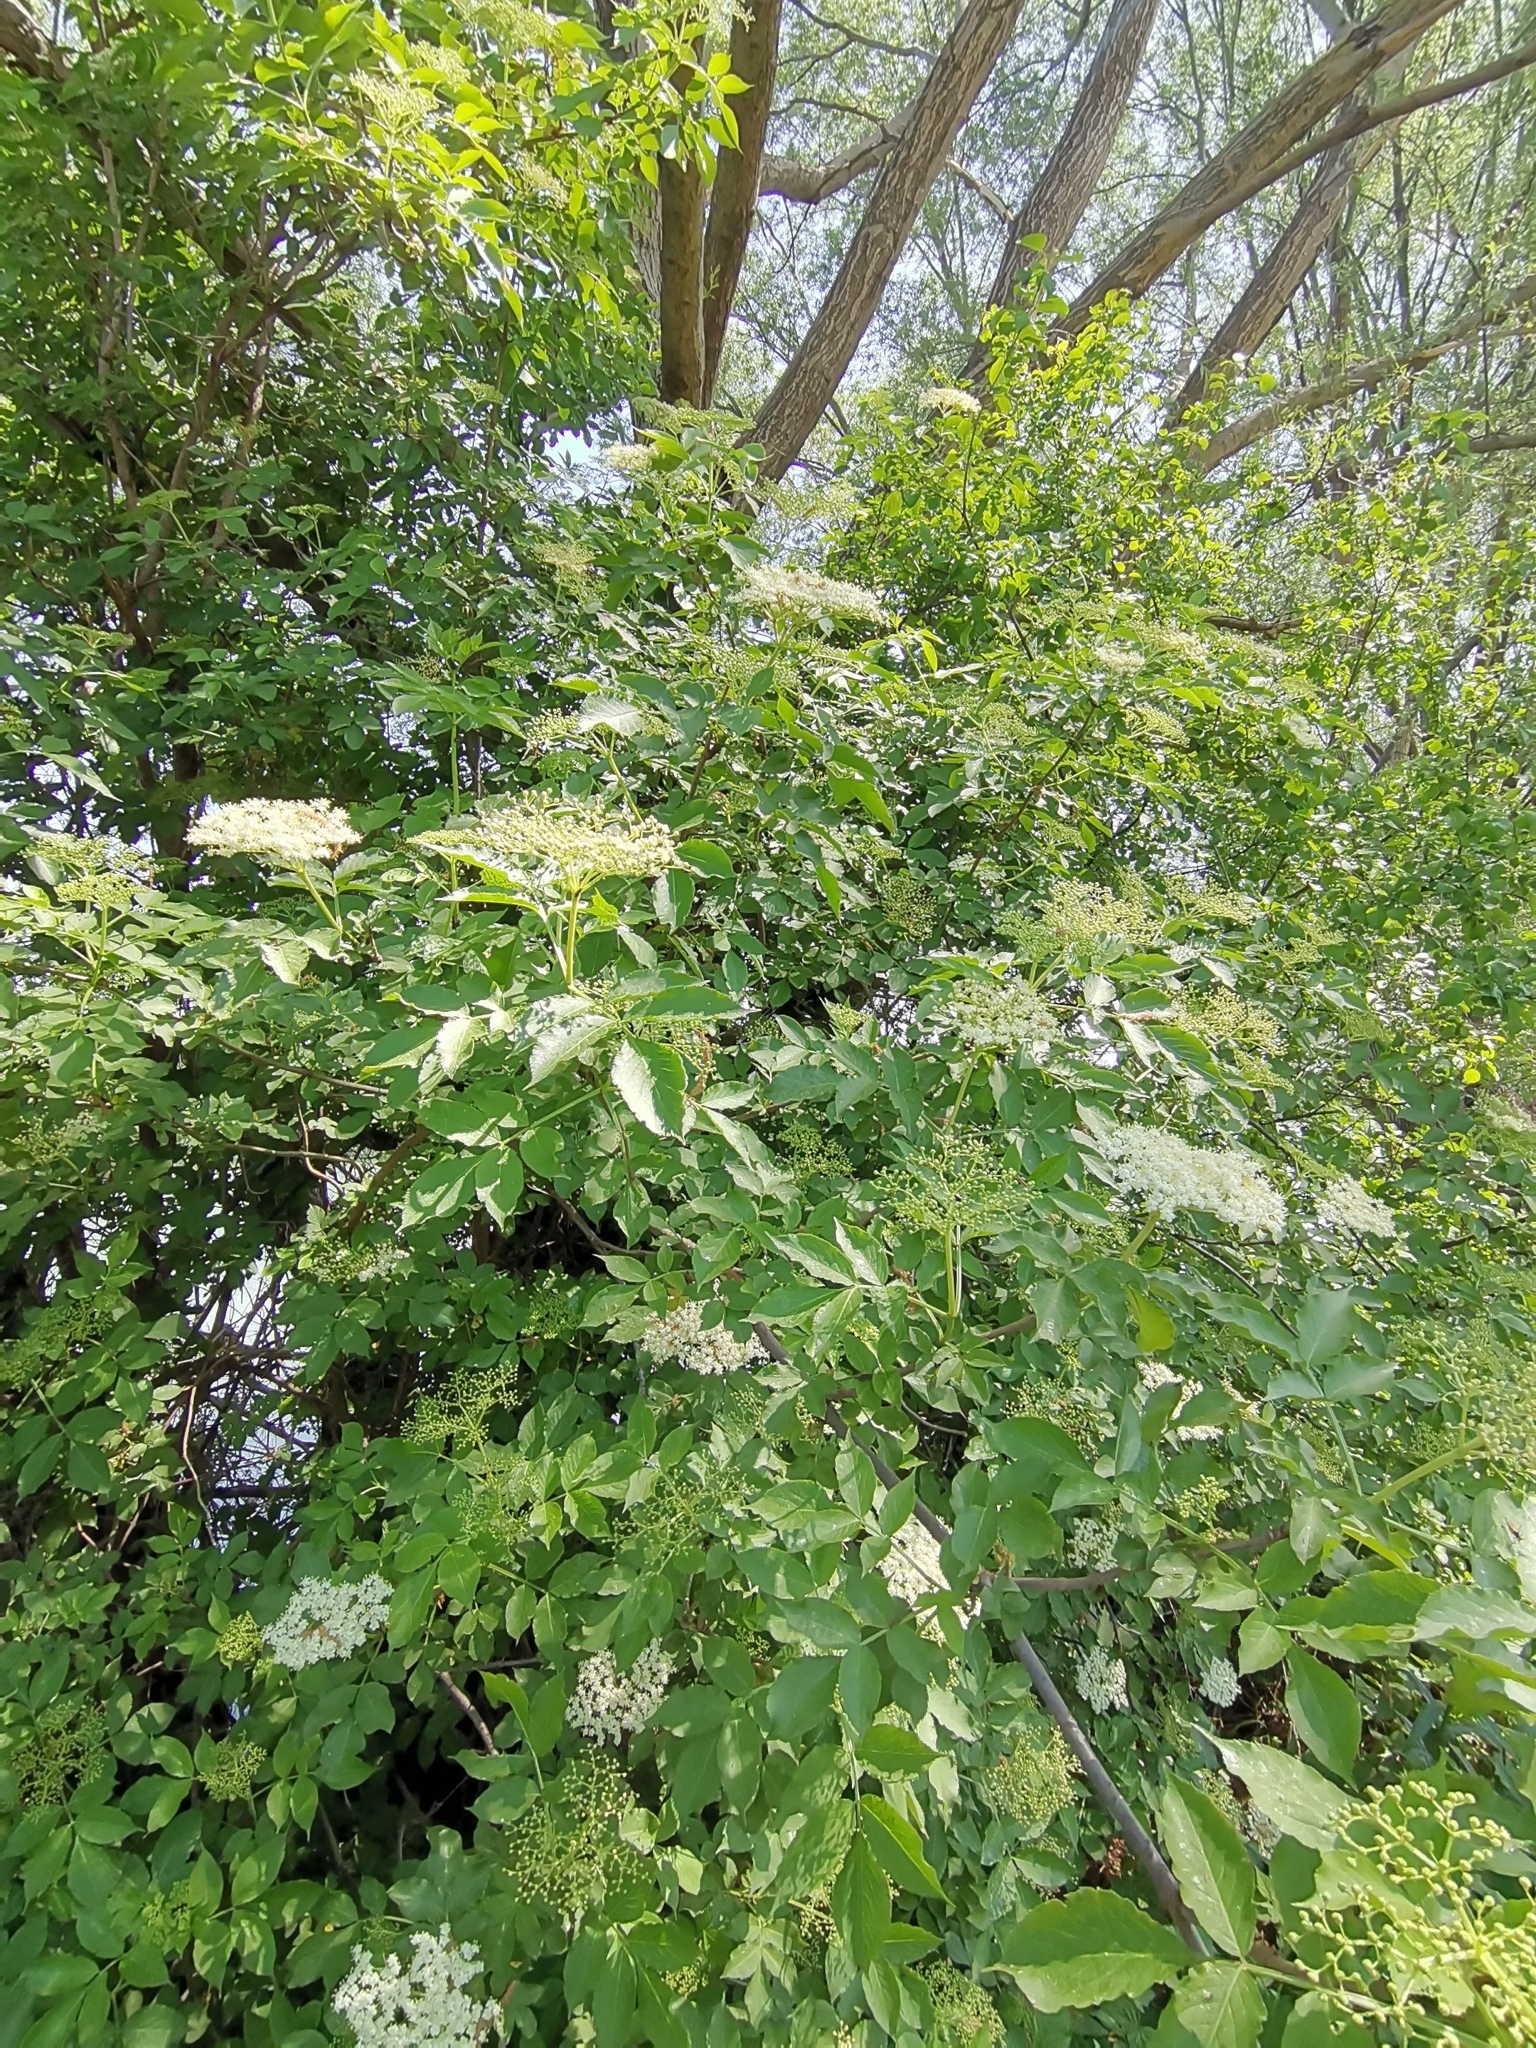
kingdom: Plantae
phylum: Tracheophyta
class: Magnoliopsida
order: Dipsacales
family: Viburnaceae
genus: Sambucus
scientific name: Sambucus nigra
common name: Elder
